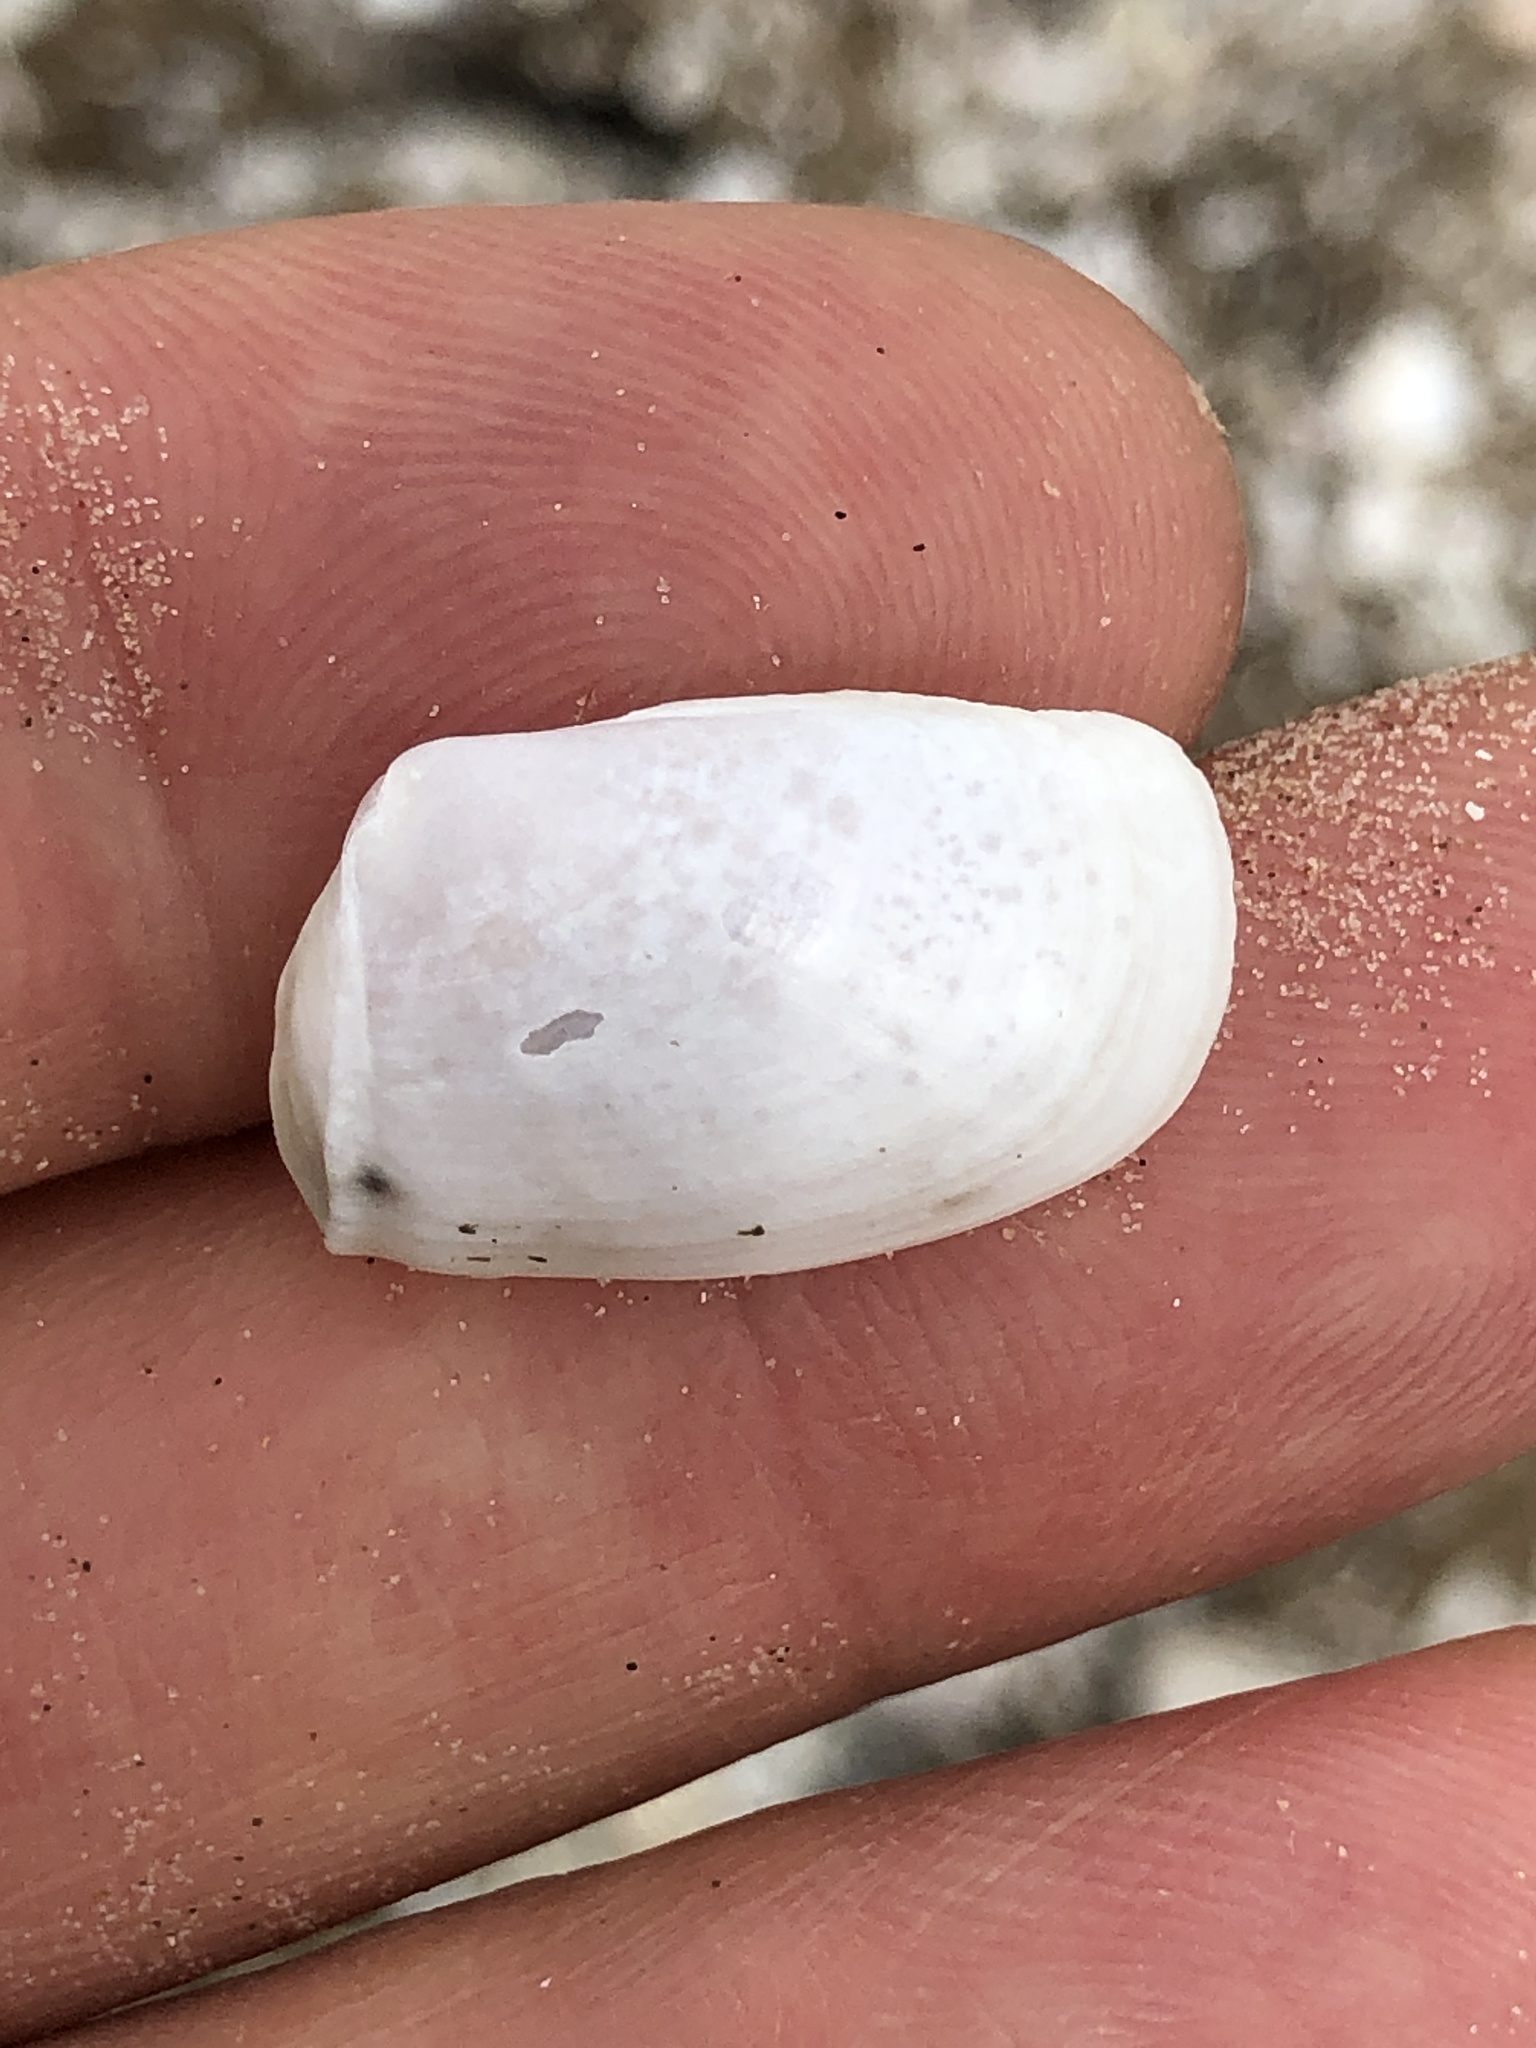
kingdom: Animalia
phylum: Mollusca
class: Bivalvia
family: Periplomatidae
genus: Periploma
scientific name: Periploma inequale
